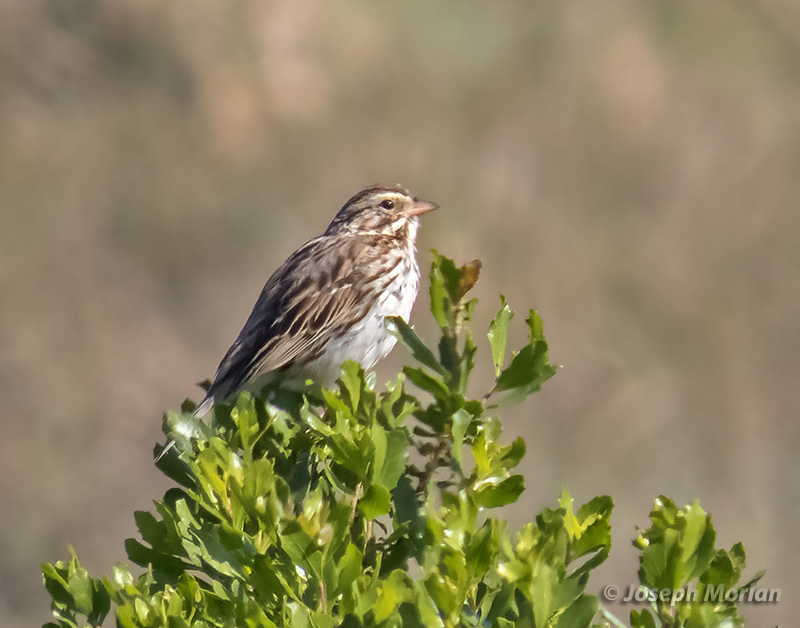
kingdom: Animalia
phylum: Chordata
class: Aves
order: Passeriformes
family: Passerellidae
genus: Passerculus
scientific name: Passerculus sandwichensis
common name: Savannah sparrow
